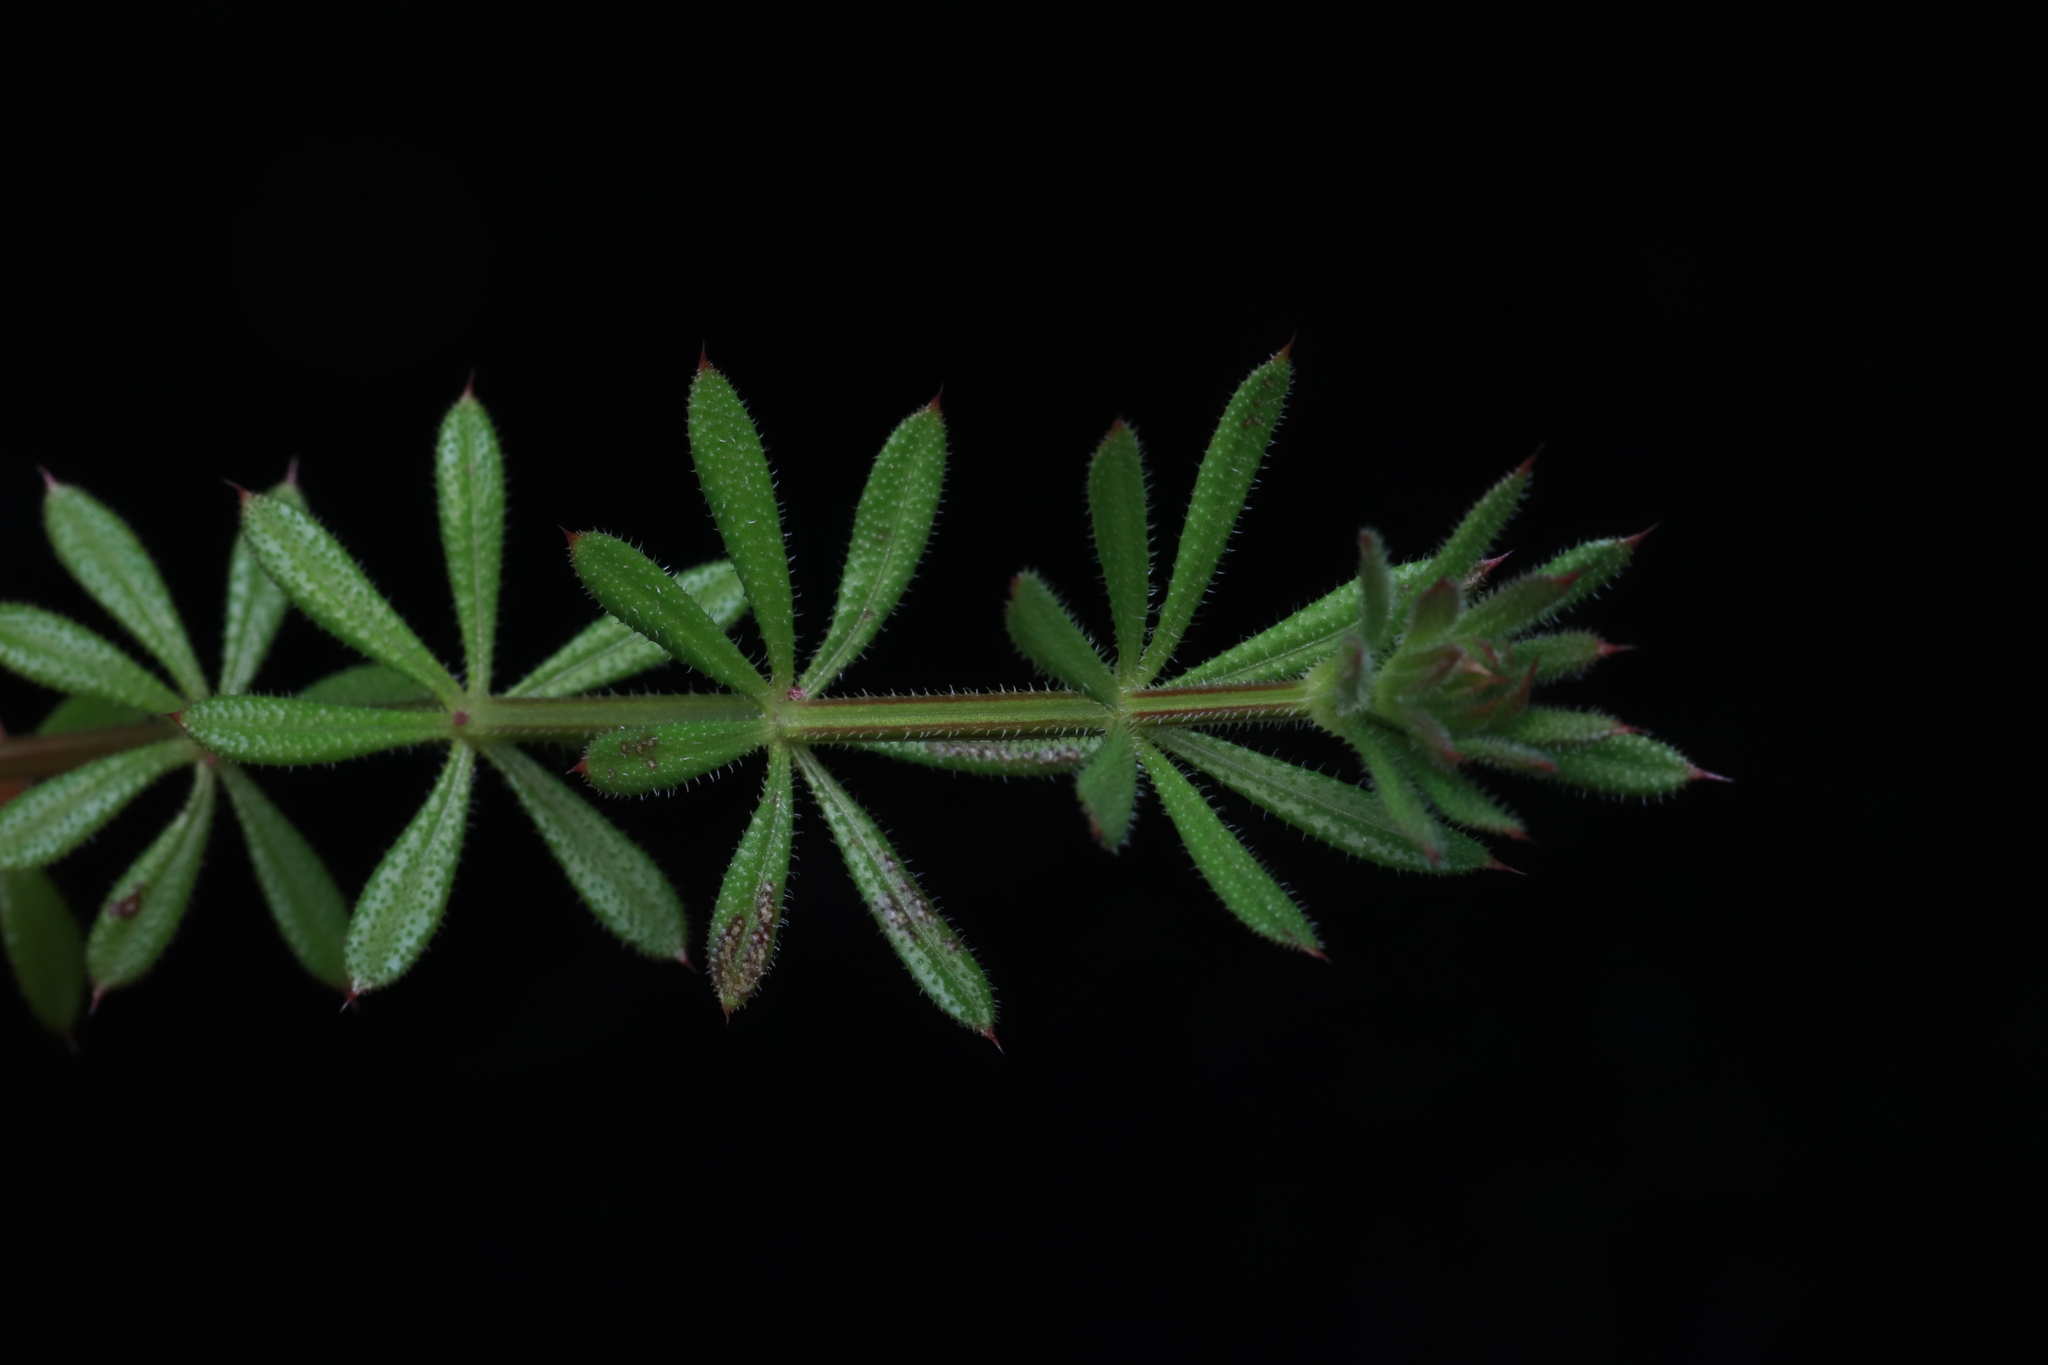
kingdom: Plantae
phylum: Tracheophyta
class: Magnoliopsida
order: Gentianales
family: Rubiaceae
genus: Galium
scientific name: Galium aparine
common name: Cleavers
